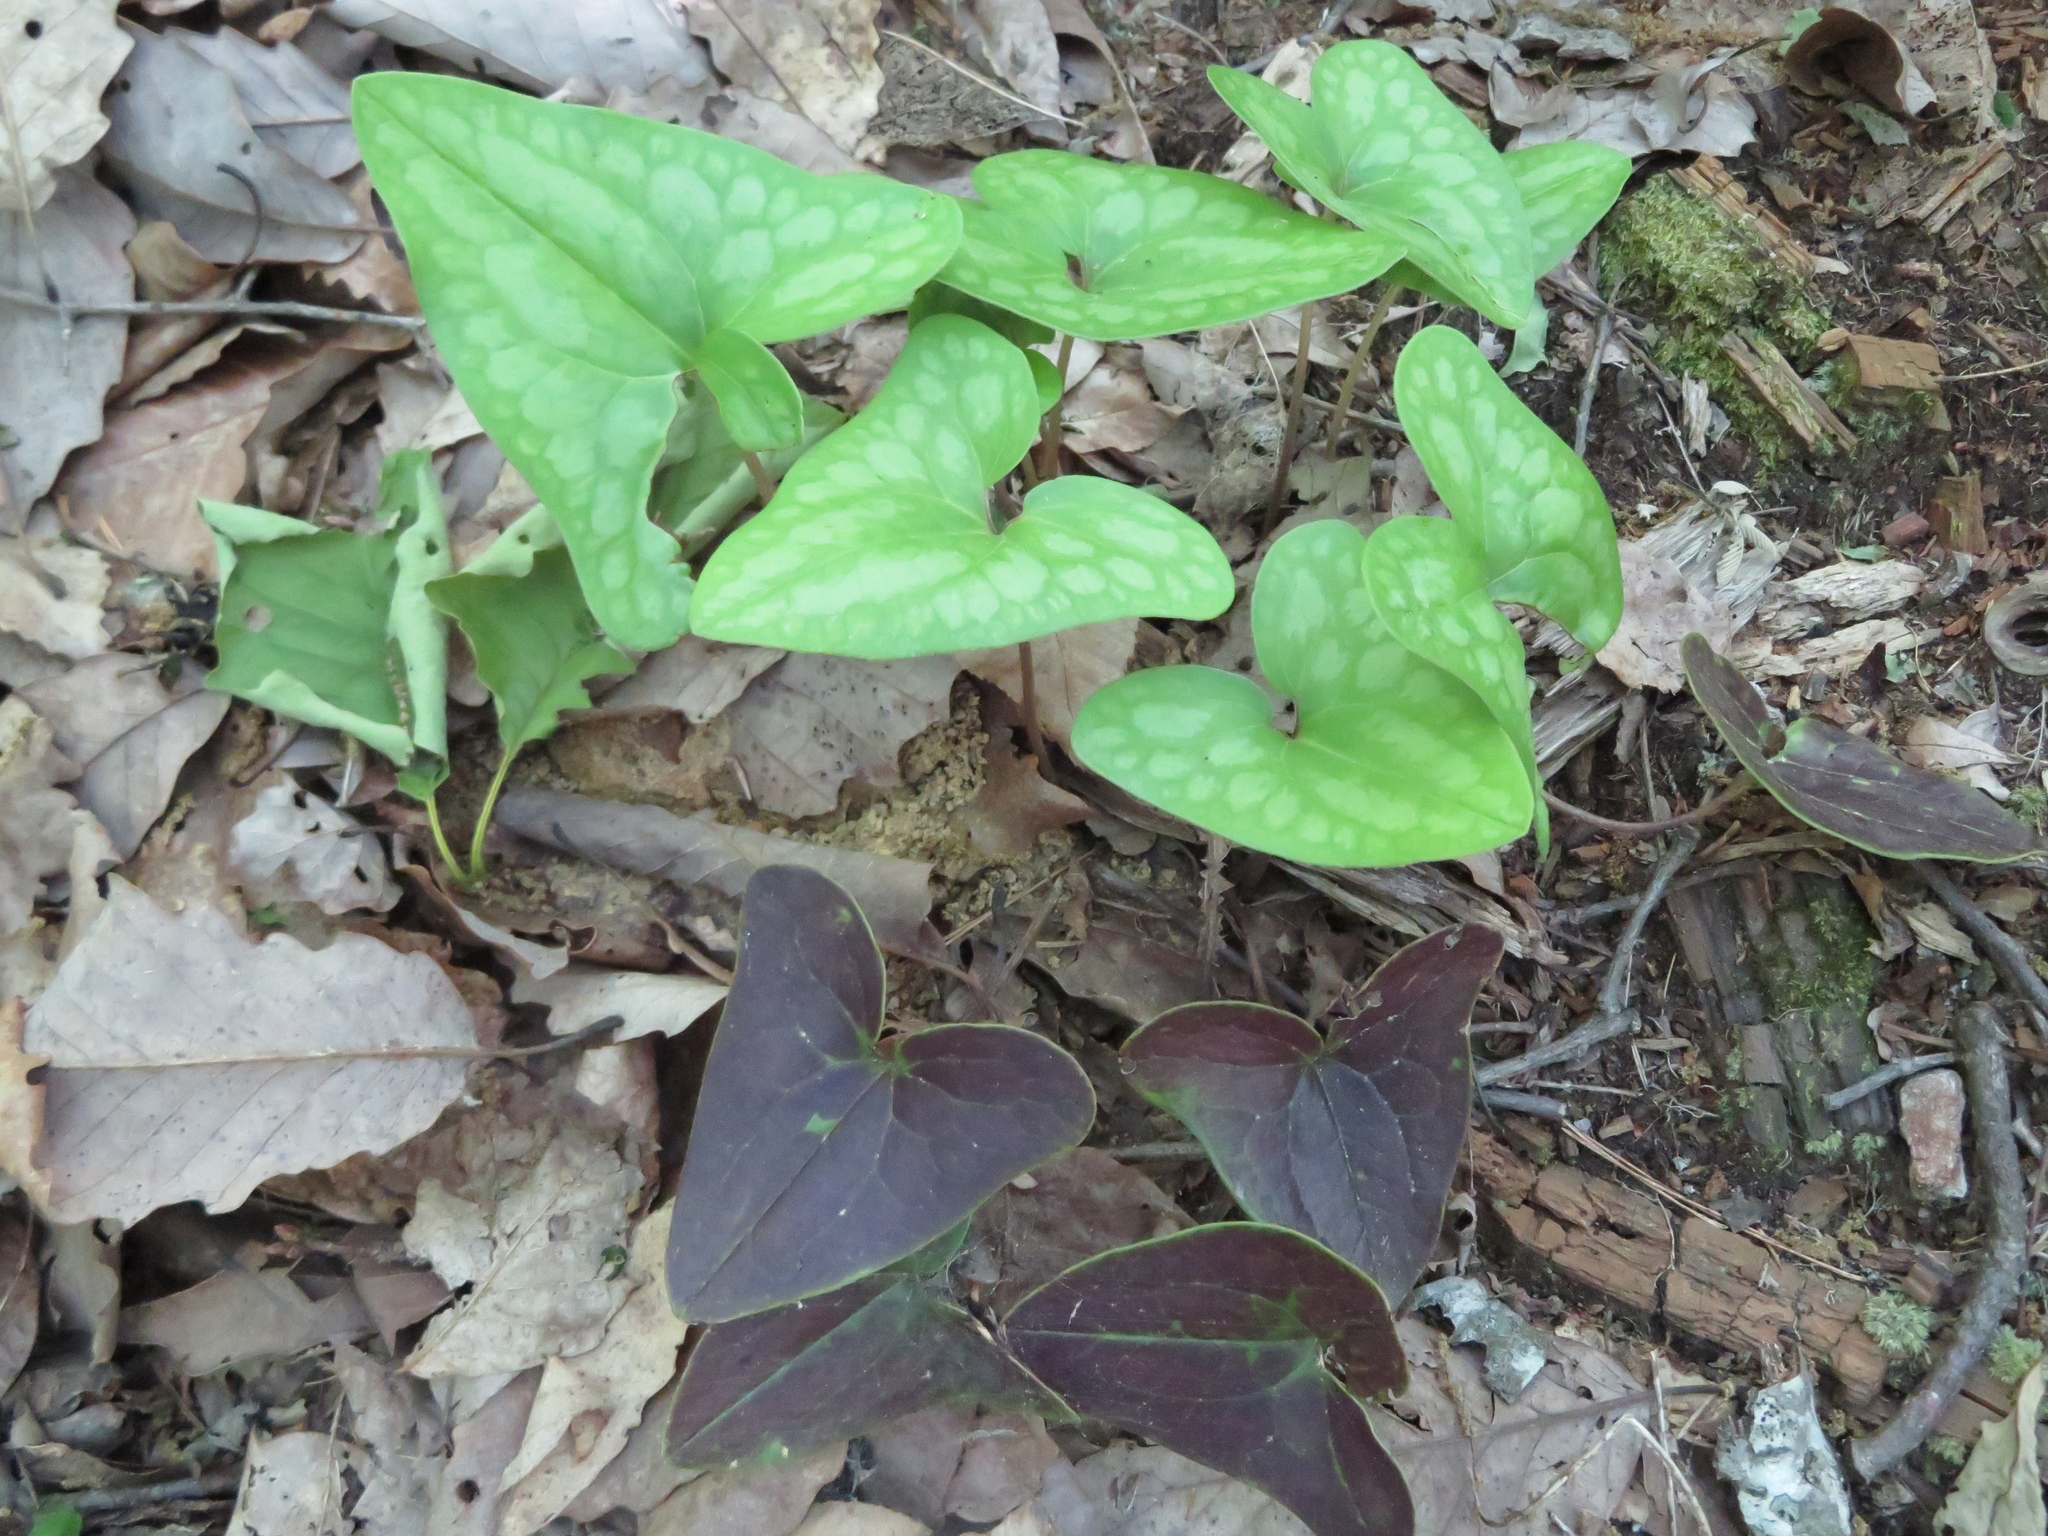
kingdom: Plantae
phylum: Tracheophyta
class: Magnoliopsida
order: Piperales
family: Aristolochiaceae
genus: Hexastylis
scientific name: Hexastylis arifolia
